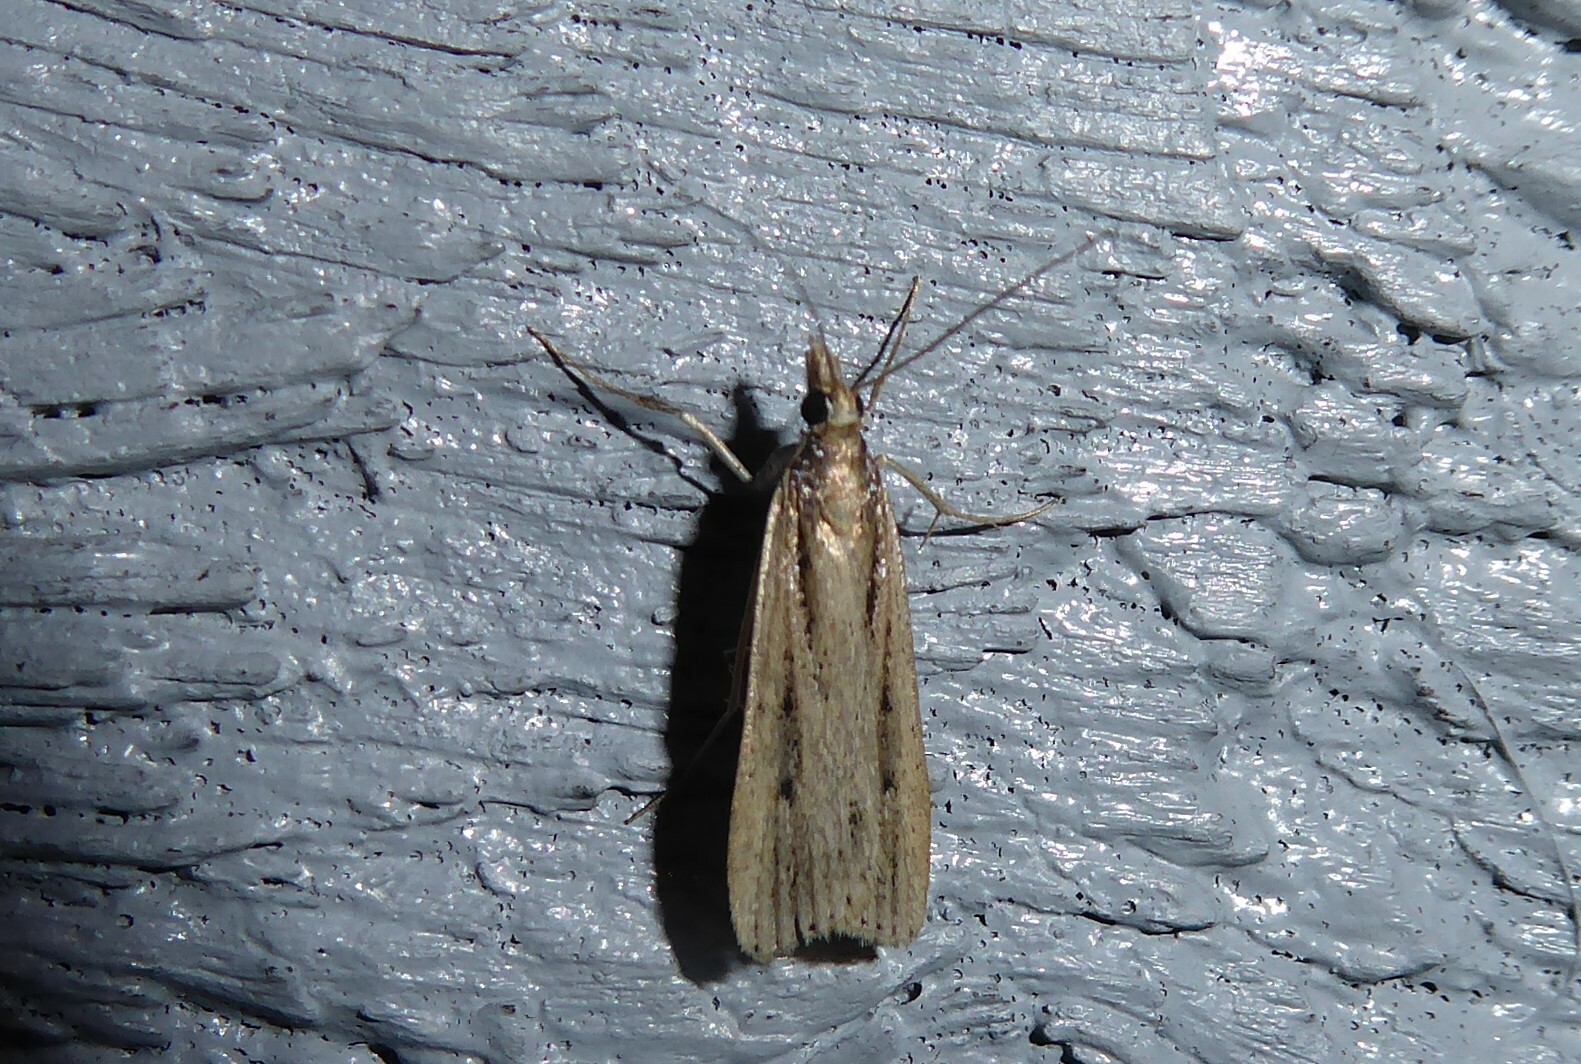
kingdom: Animalia
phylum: Arthropoda
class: Insecta
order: Lepidoptera
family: Crambidae
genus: Eudonia
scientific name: Eudonia sabulosella
